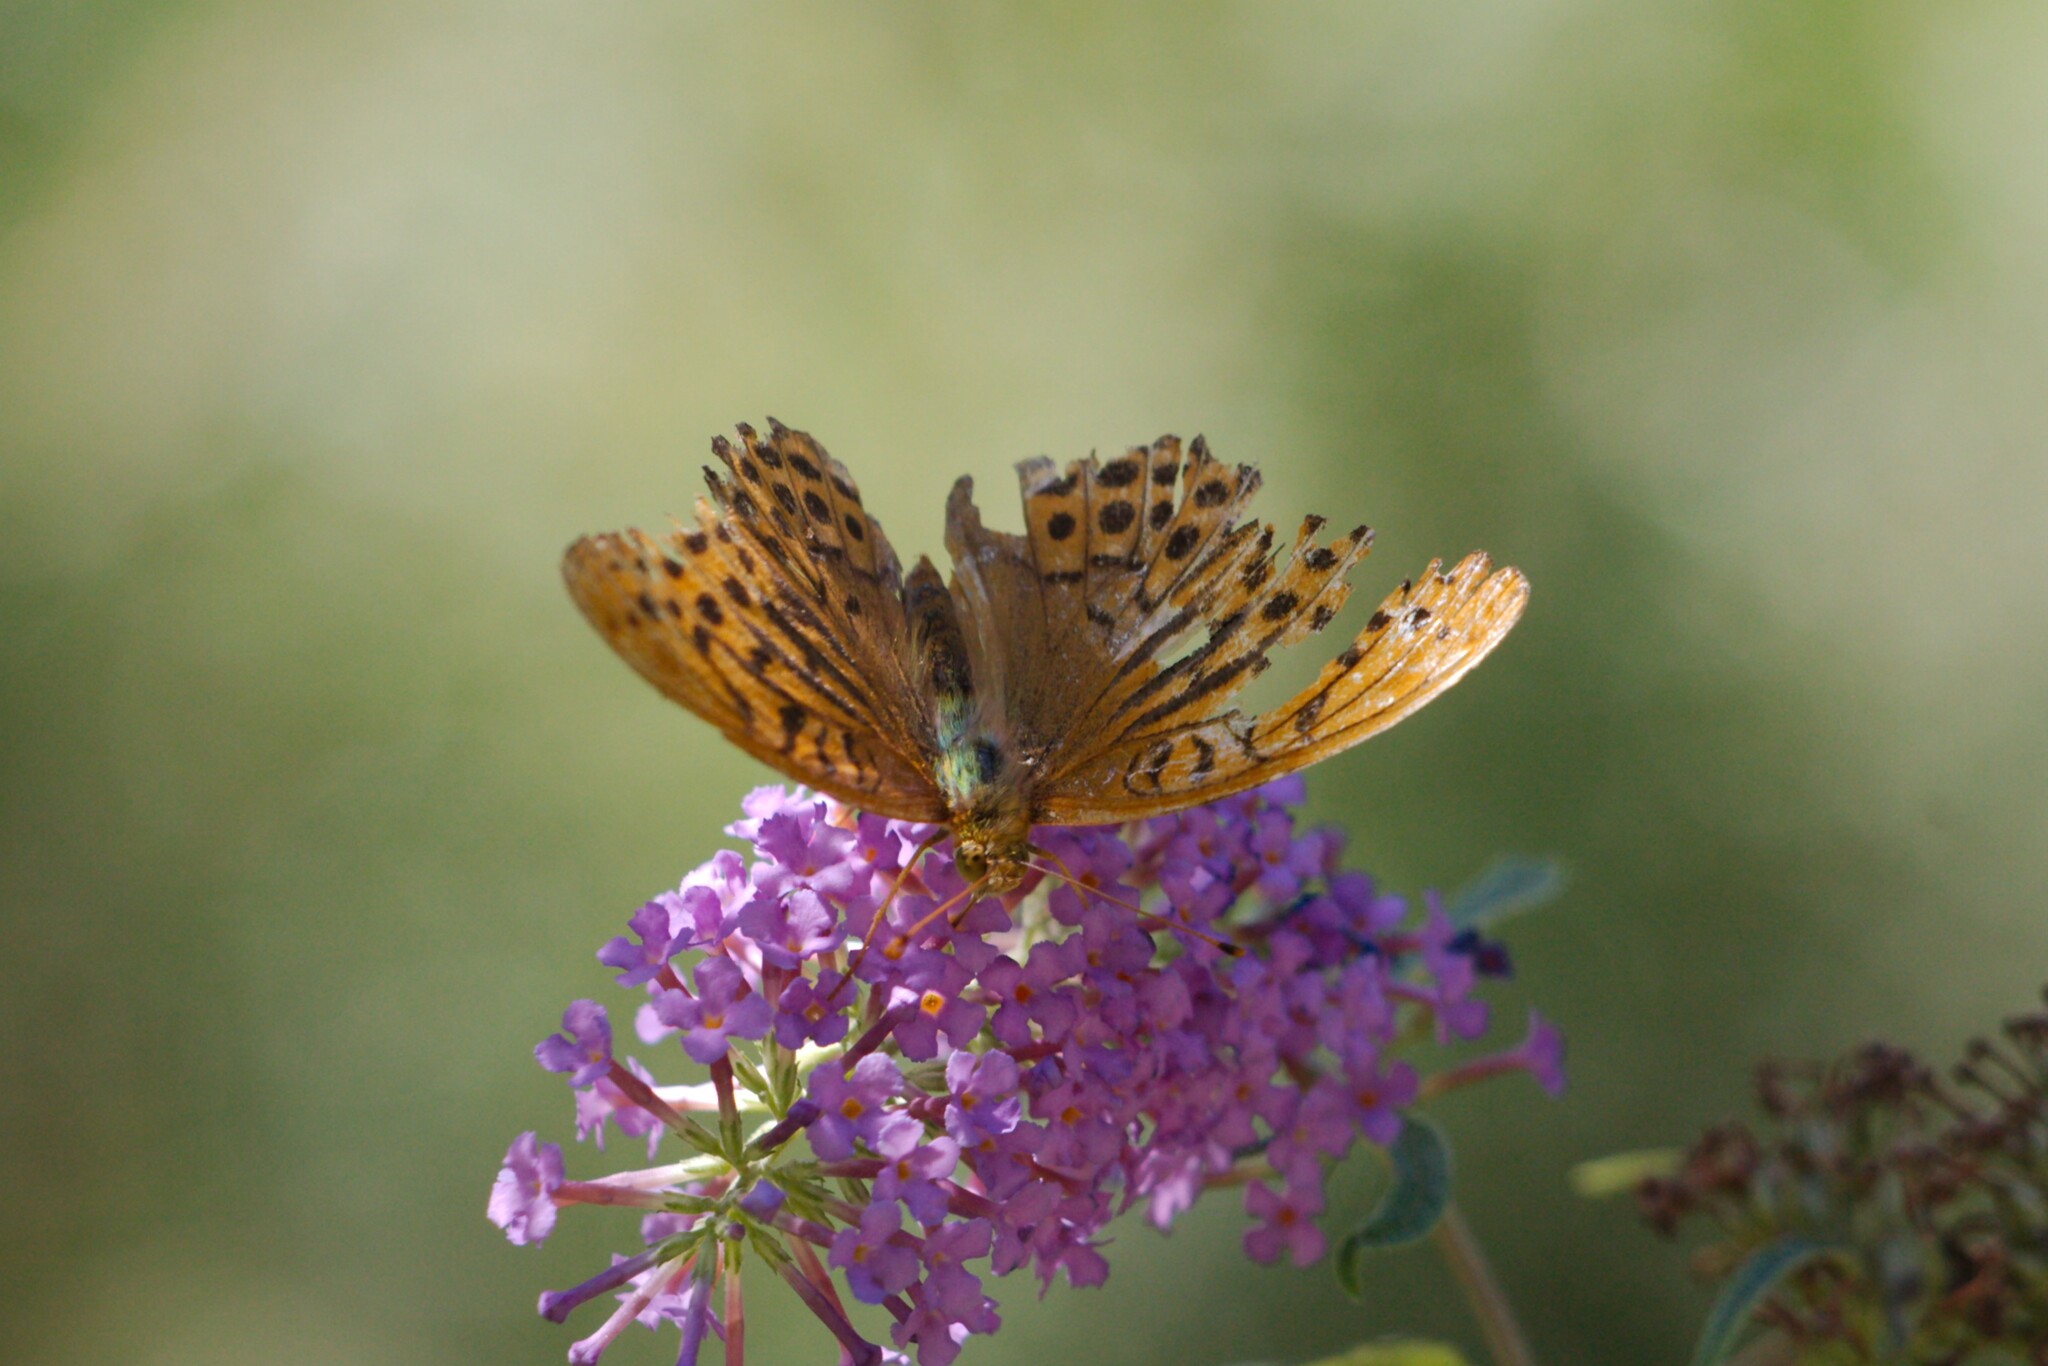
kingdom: Animalia
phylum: Arthropoda
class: Insecta
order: Lepidoptera
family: Nymphalidae
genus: Argynnis
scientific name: Argynnis paphia
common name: Silver-washed fritillary
